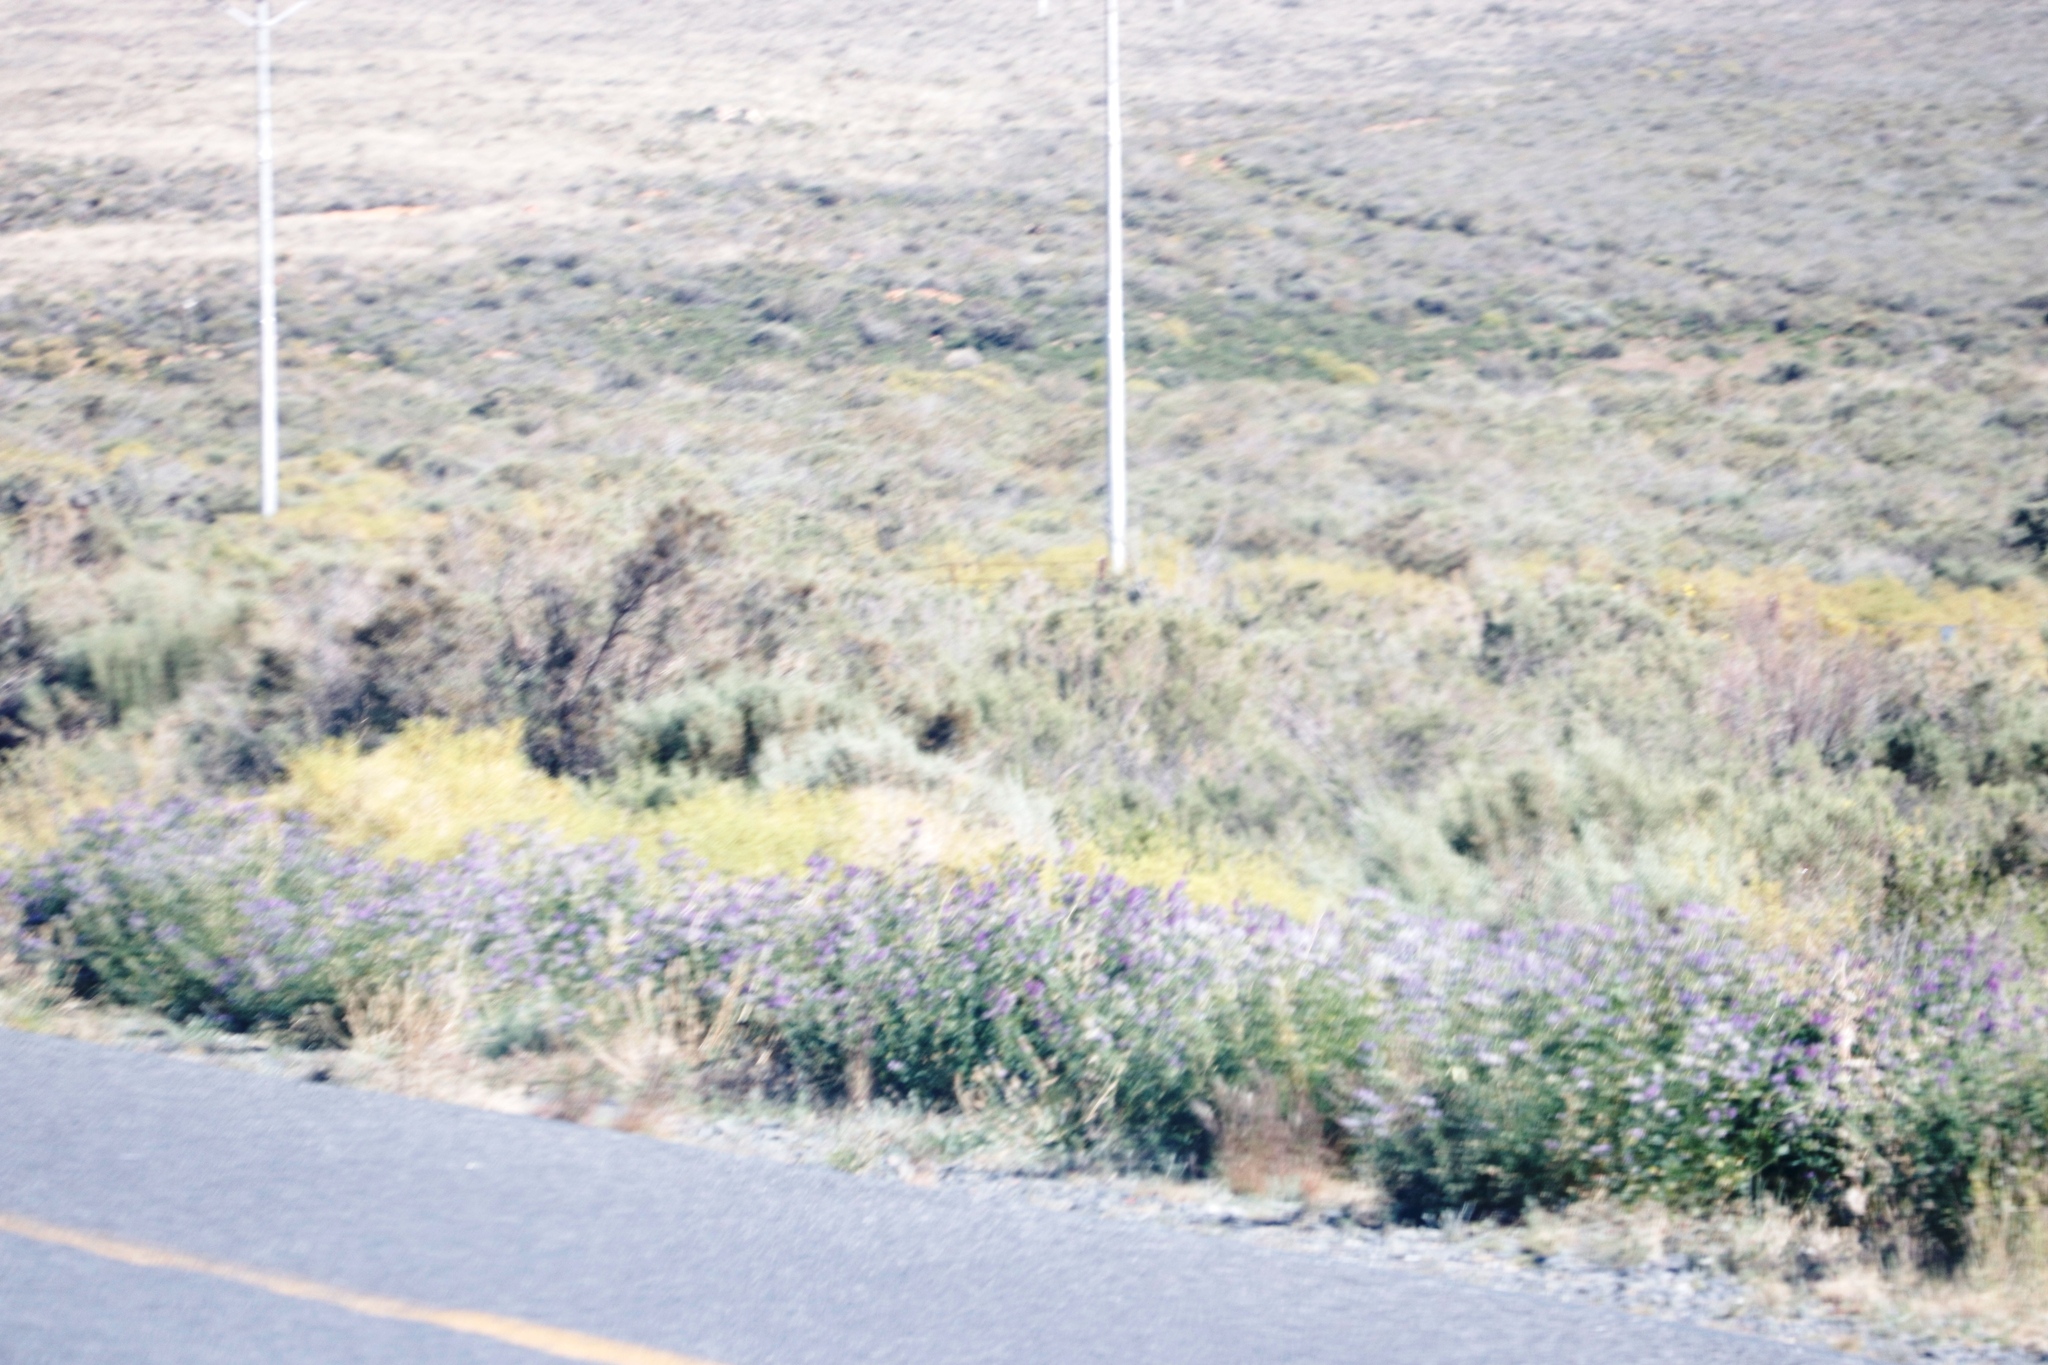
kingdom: Plantae
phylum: Tracheophyta
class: Magnoliopsida
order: Fabales
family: Fabaceae
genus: Medicago
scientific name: Medicago sativa
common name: Alfalfa
